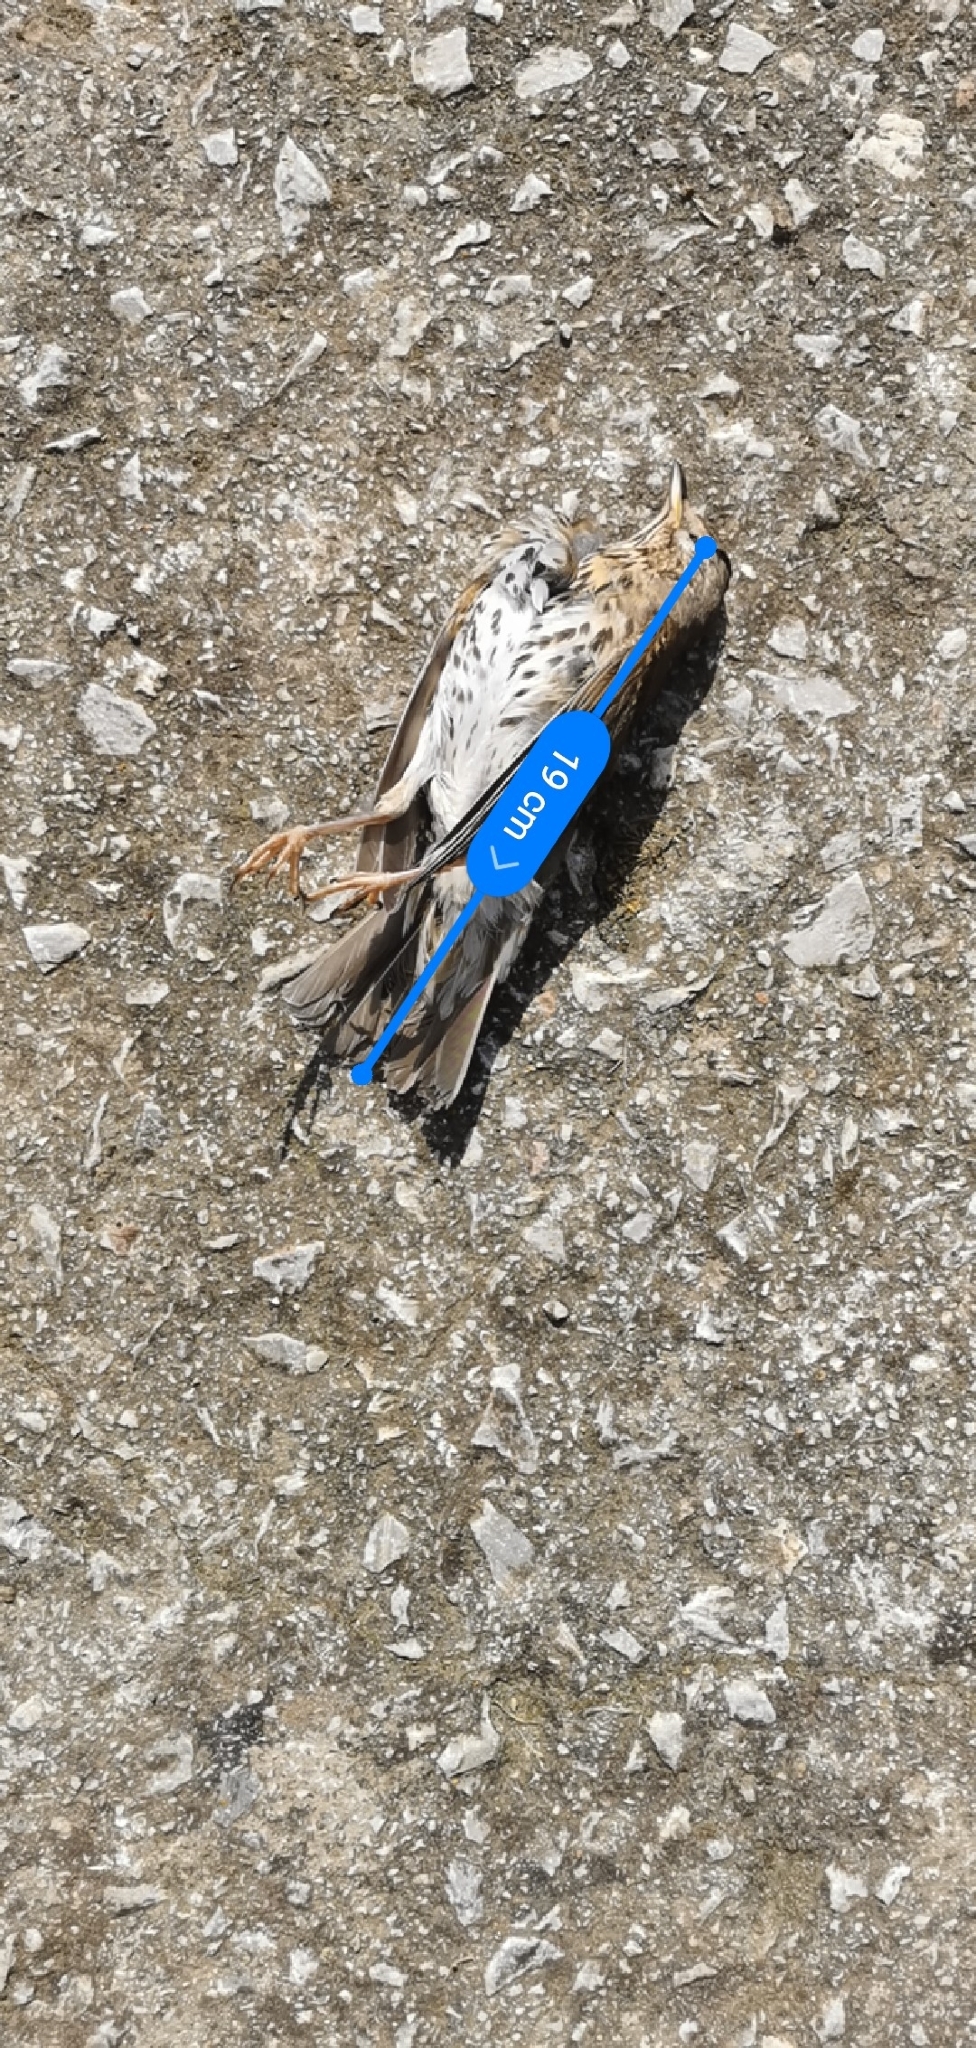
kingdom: Animalia
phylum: Chordata
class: Aves
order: Passeriformes
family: Turdidae
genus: Turdus
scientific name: Turdus philomelos
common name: Song thrush
